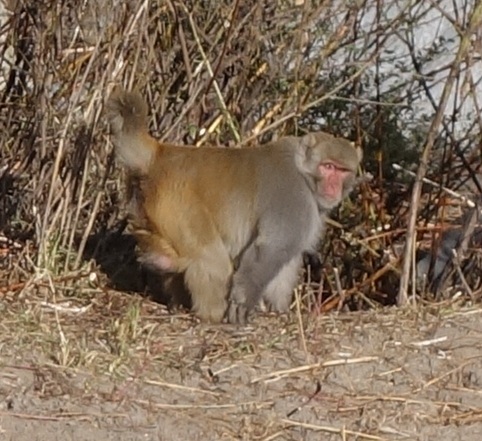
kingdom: Animalia
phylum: Chordata
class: Mammalia
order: Primates
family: Cercopithecidae
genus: Macaca
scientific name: Macaca mulatta
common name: Rhesus monkey
